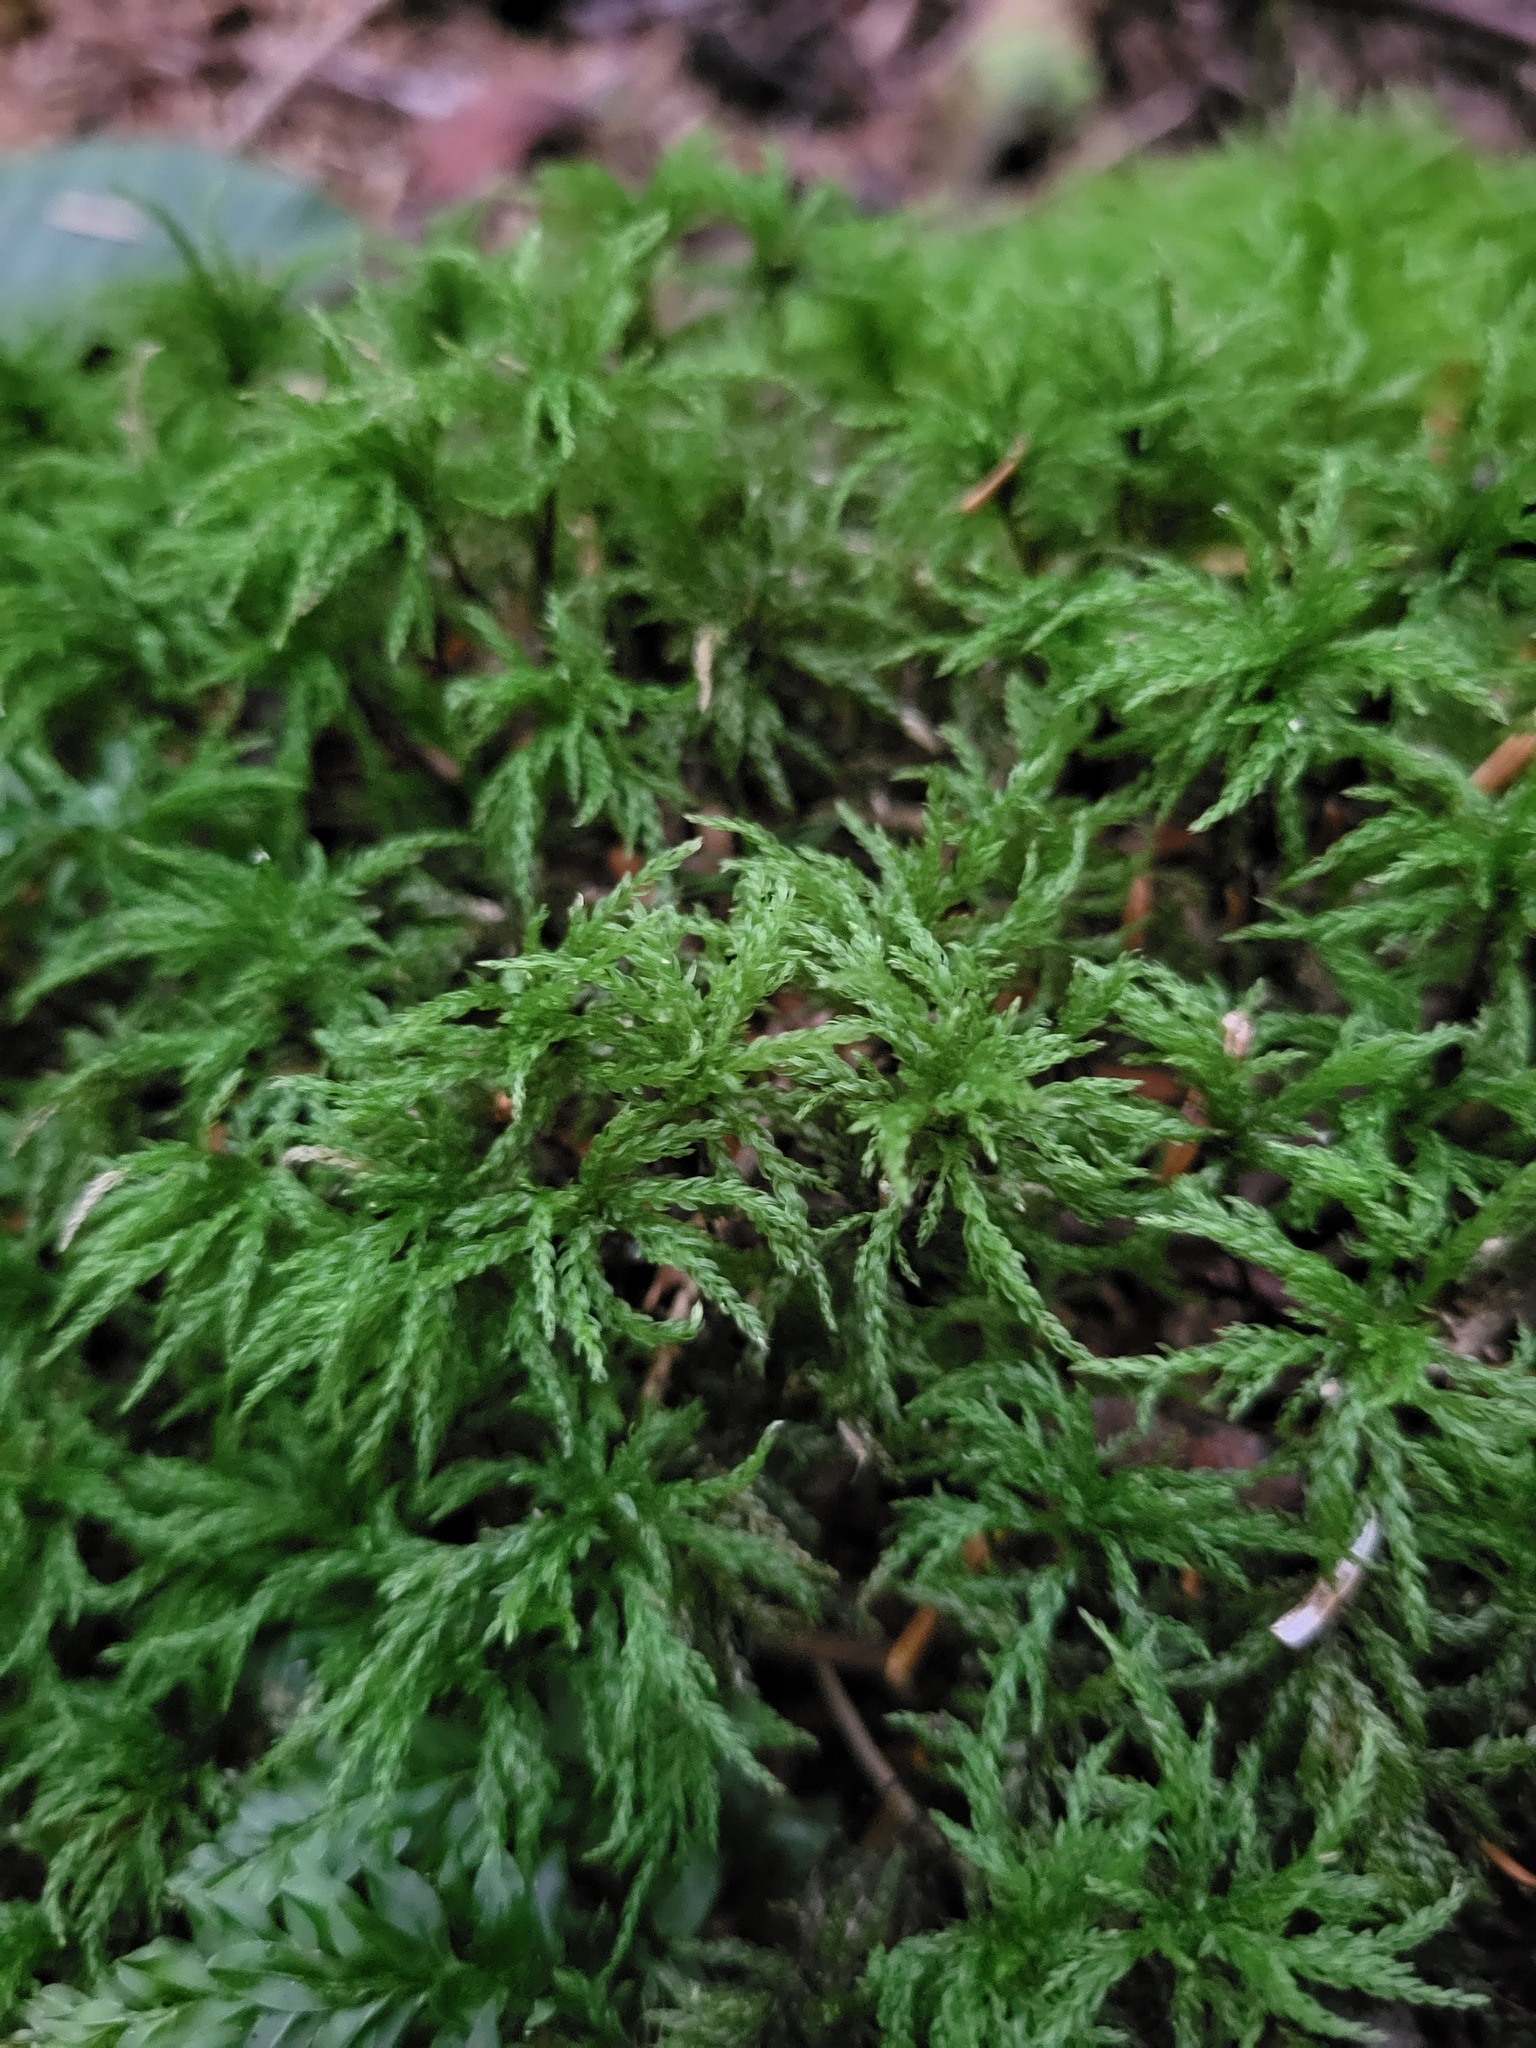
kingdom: Plantae
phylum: Bryophyta
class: Bryopsida
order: Bryales
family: Mniaceae
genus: Leucolepis
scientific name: Leucolepis acanthoneura
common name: Leucolepis umbrella moss
